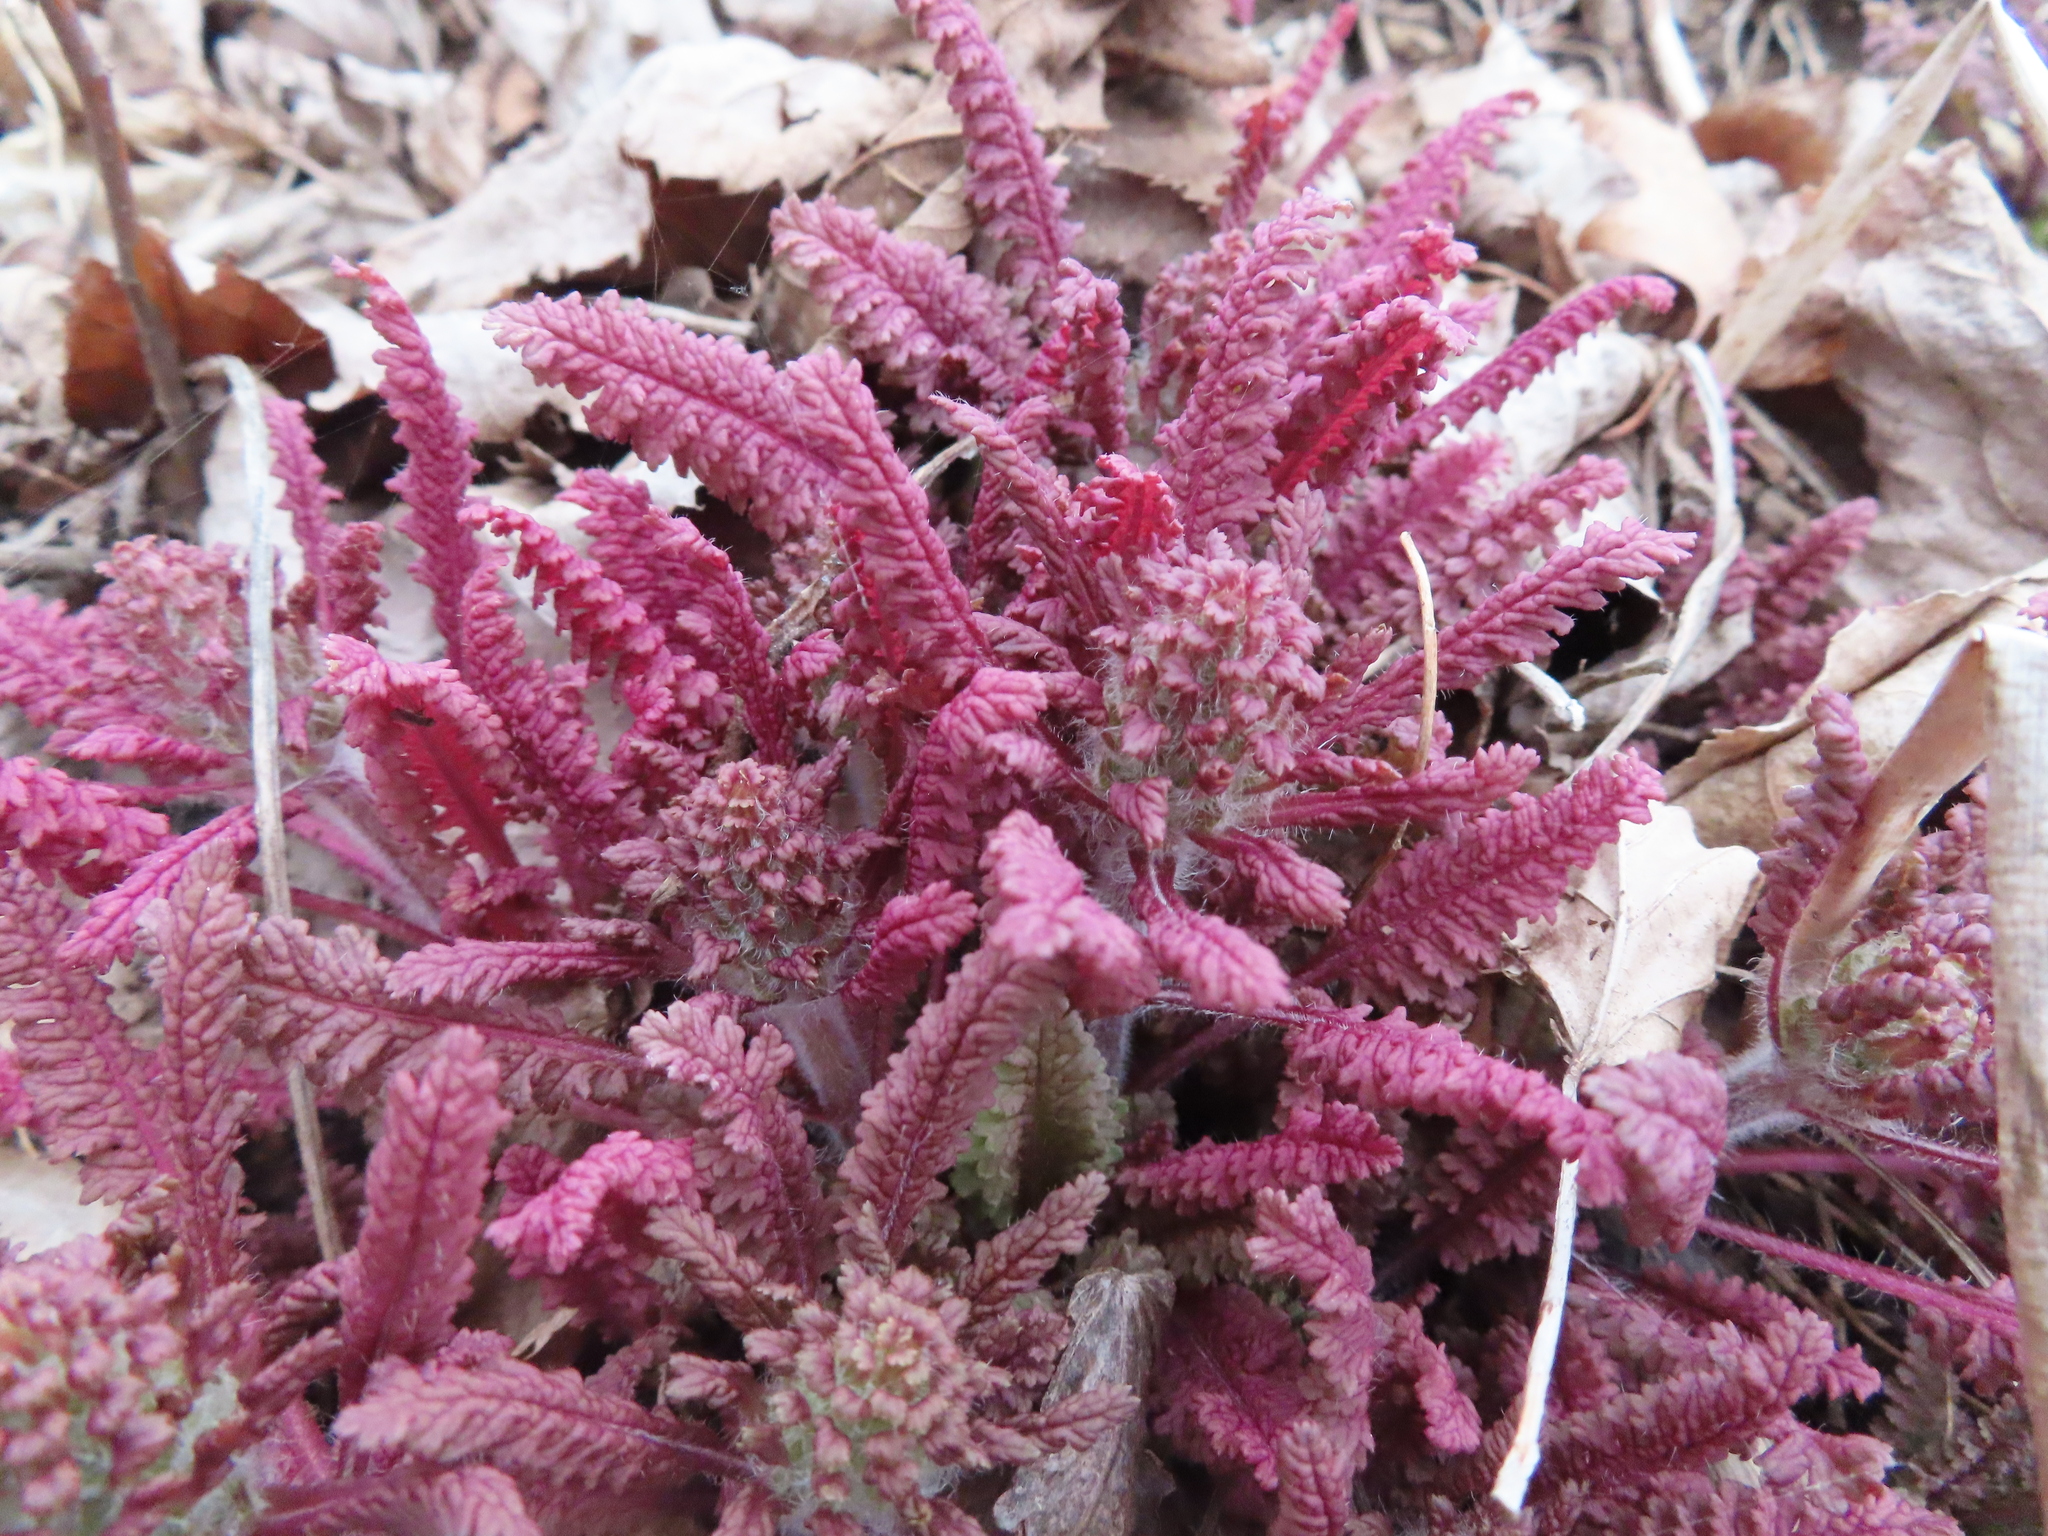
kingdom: Plantae
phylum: Tracheophyta
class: Magnoliopsida
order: Lamiales
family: Orobanchaceae
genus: Pedicularis
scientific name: Pedicularis canadensis
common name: Early lousewort
